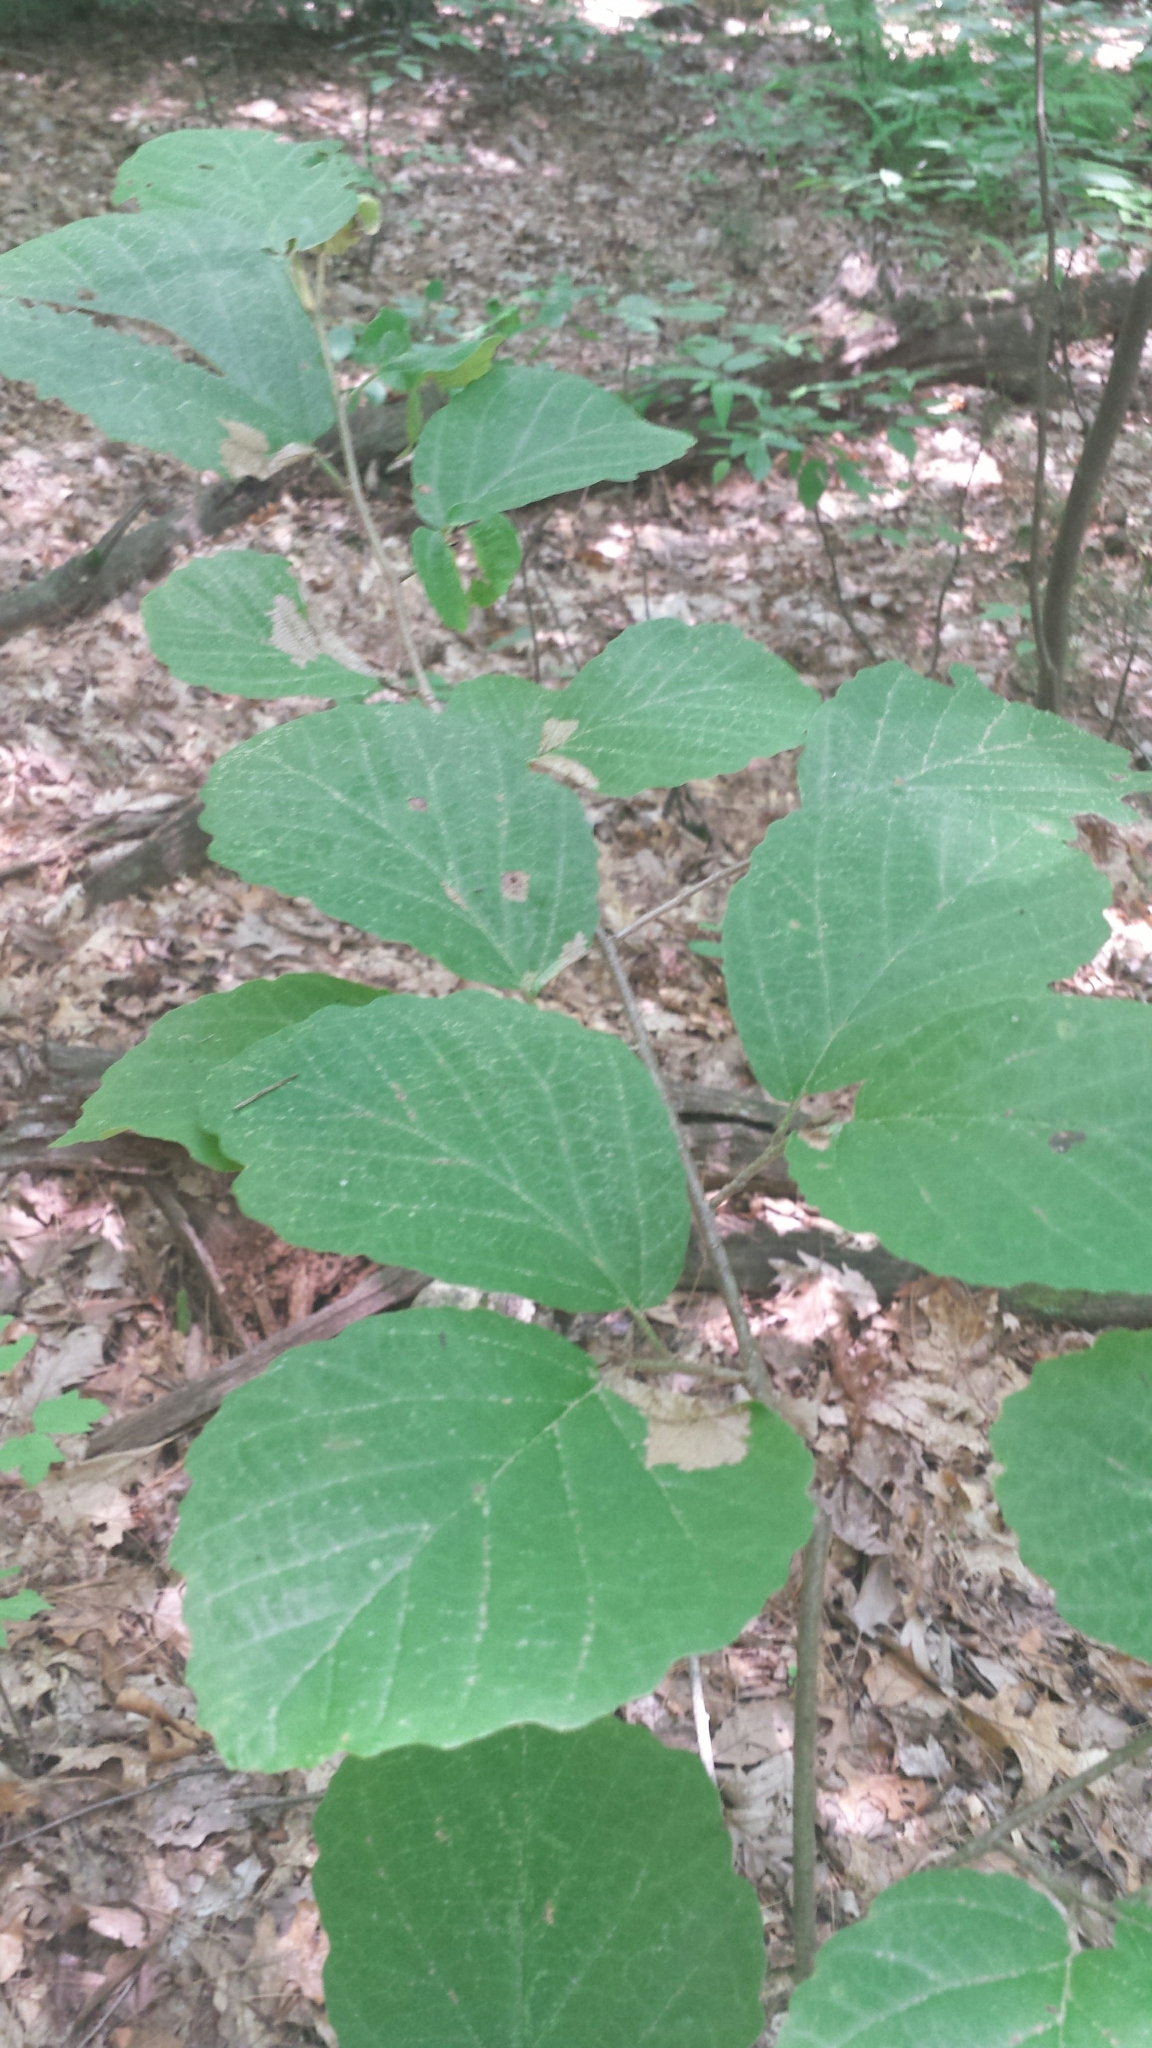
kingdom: Plantae
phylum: Tracheophyta
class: Magnoliopsida
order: Saxifragales
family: Hamamelidaceae
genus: Hamamelis
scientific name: Hamamelis virginiana
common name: Witch-hazel
